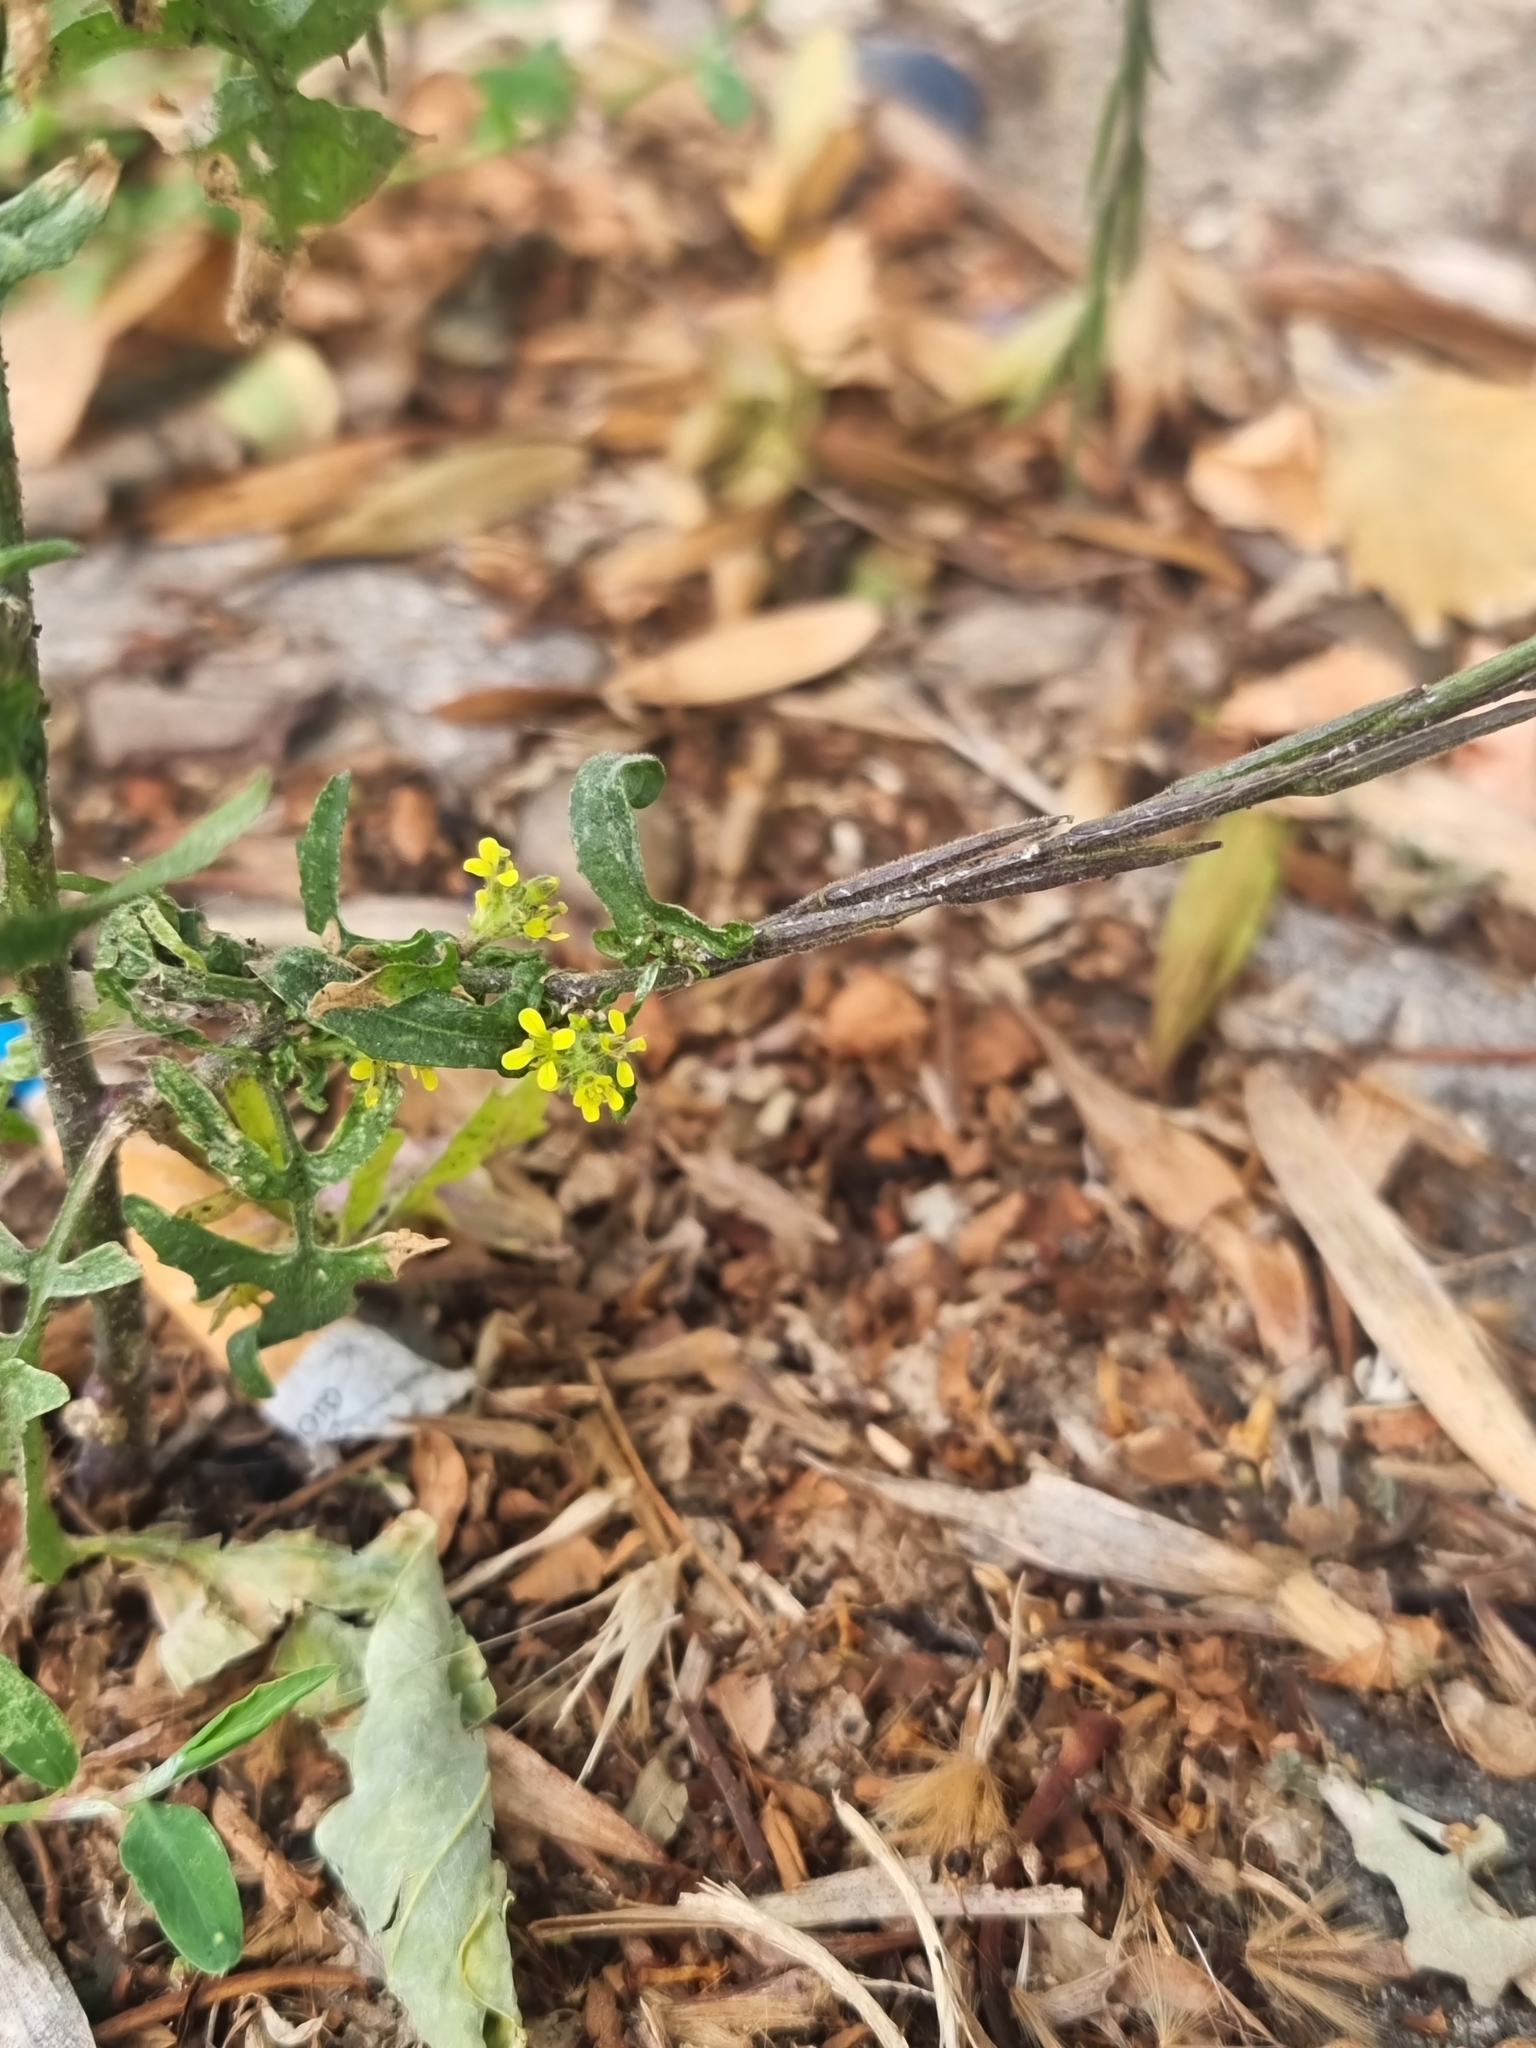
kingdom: Plantae
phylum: Tracheophyta
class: Magnoliopsida
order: Brassicales
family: Brassicaceae
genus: Sisymbrium
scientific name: Sisymbrium officinale
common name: Hedge mustard
